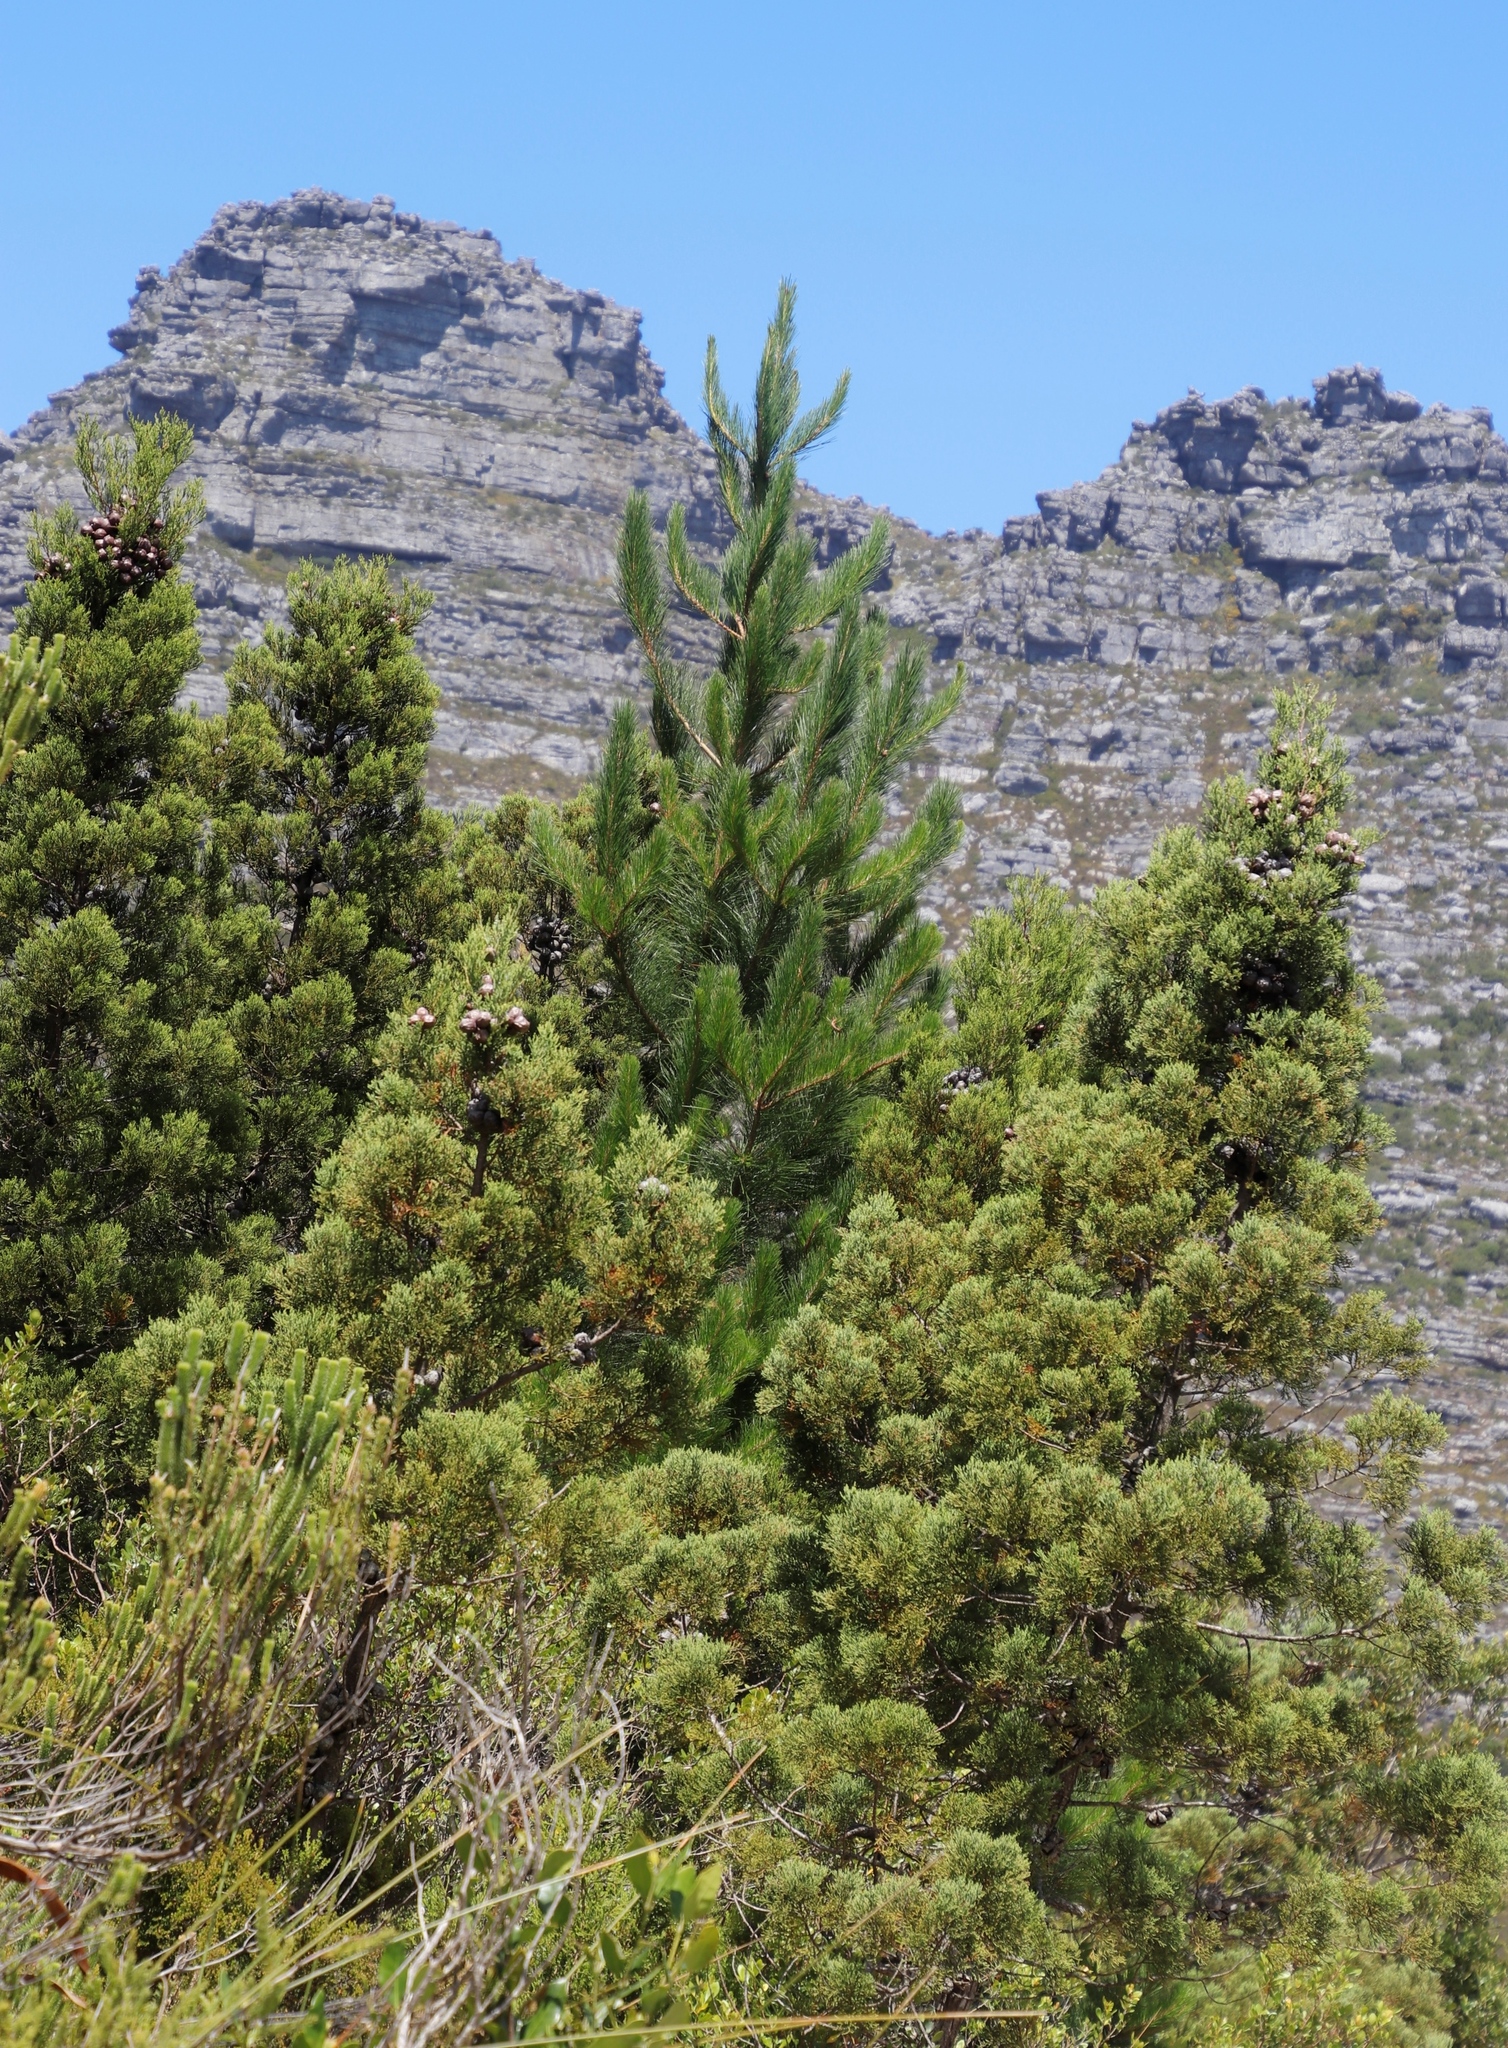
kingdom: Plantae
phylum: Tracheophyta
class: Pinopsida
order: Pinales
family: Pinaceae
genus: Pinus
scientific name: Pinus radiata
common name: Monterey pine
